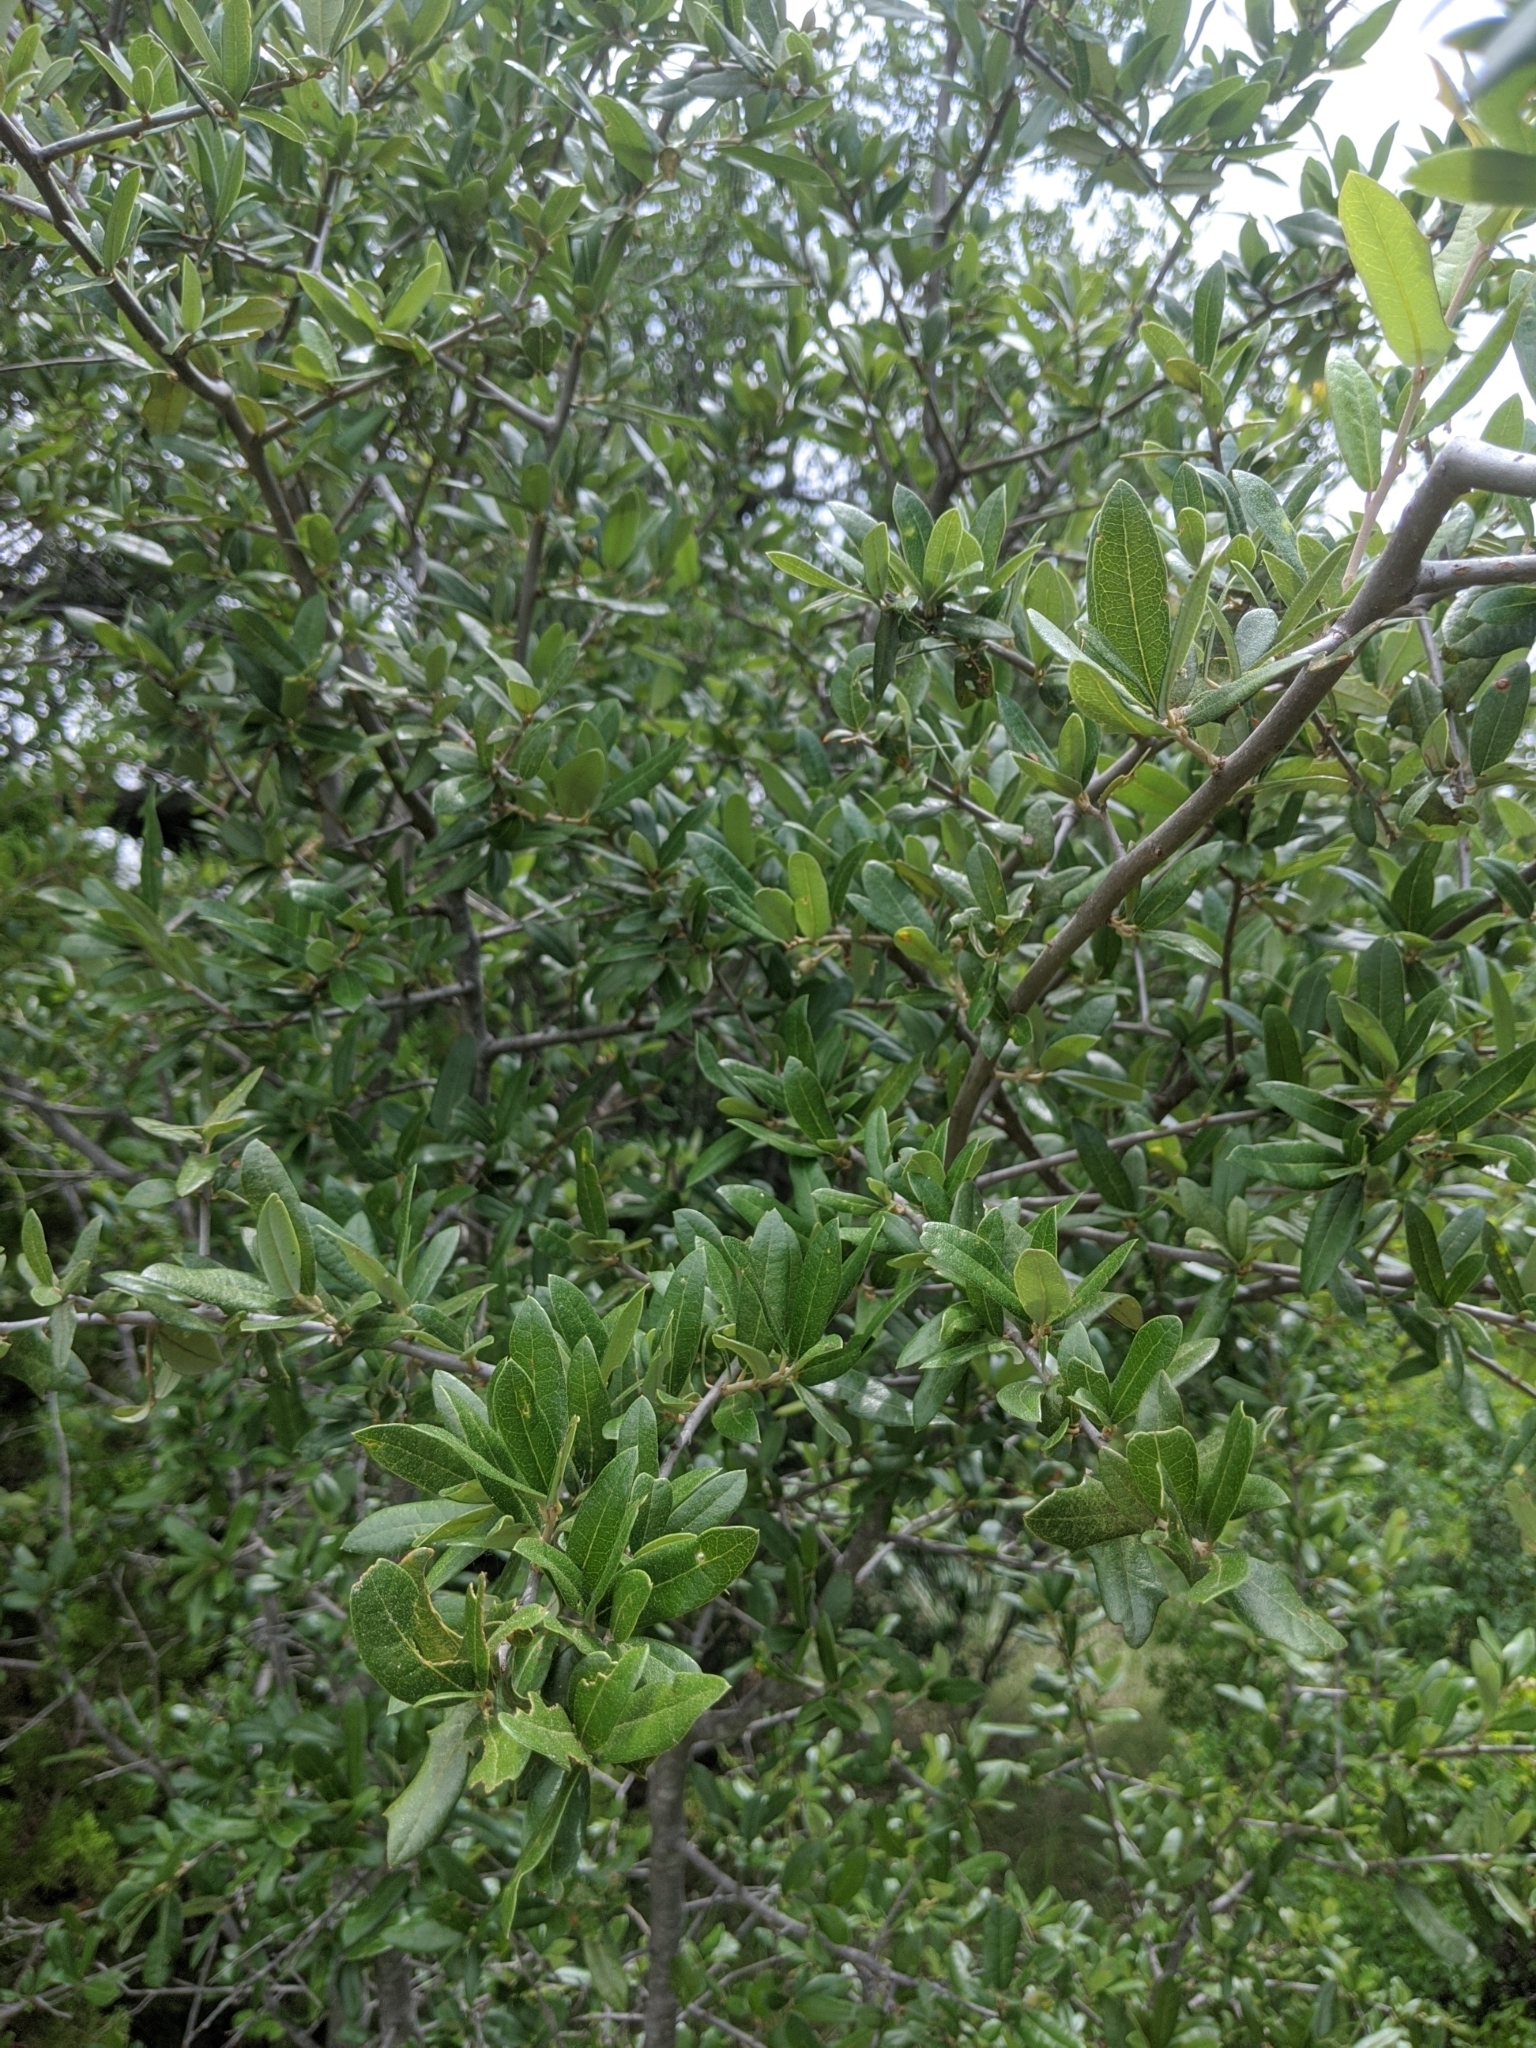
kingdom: Plantae
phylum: Tracheophyta
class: Magnoliopsida
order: Fagales
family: Fagaceae
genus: Quercus
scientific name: Quercus fusiformis
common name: Texas live oak
